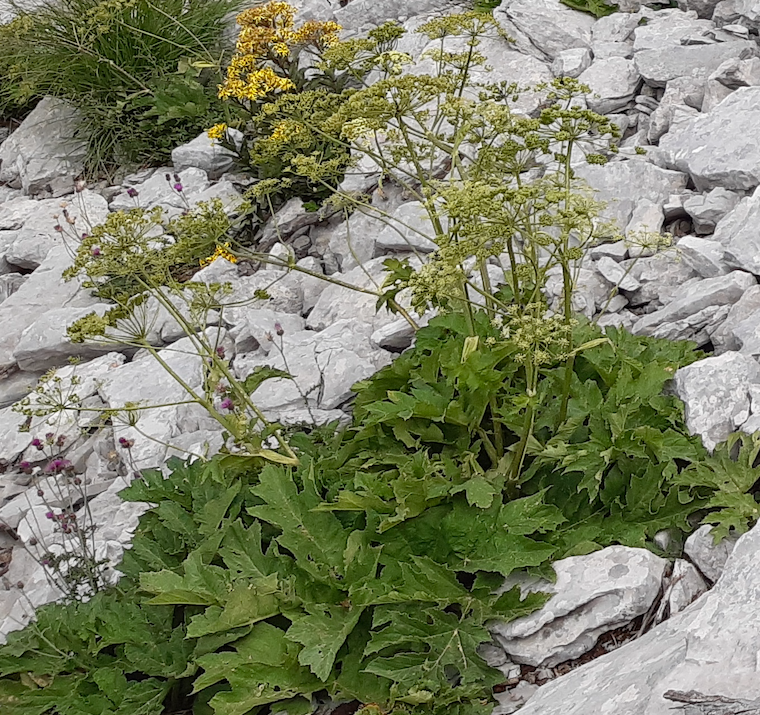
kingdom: Plantae
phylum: Tracheophyta
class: Magnoliopsida
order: Apiales
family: Apiaceae
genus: Heracleum
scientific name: Heracleum sphondylium
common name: Hogweed
